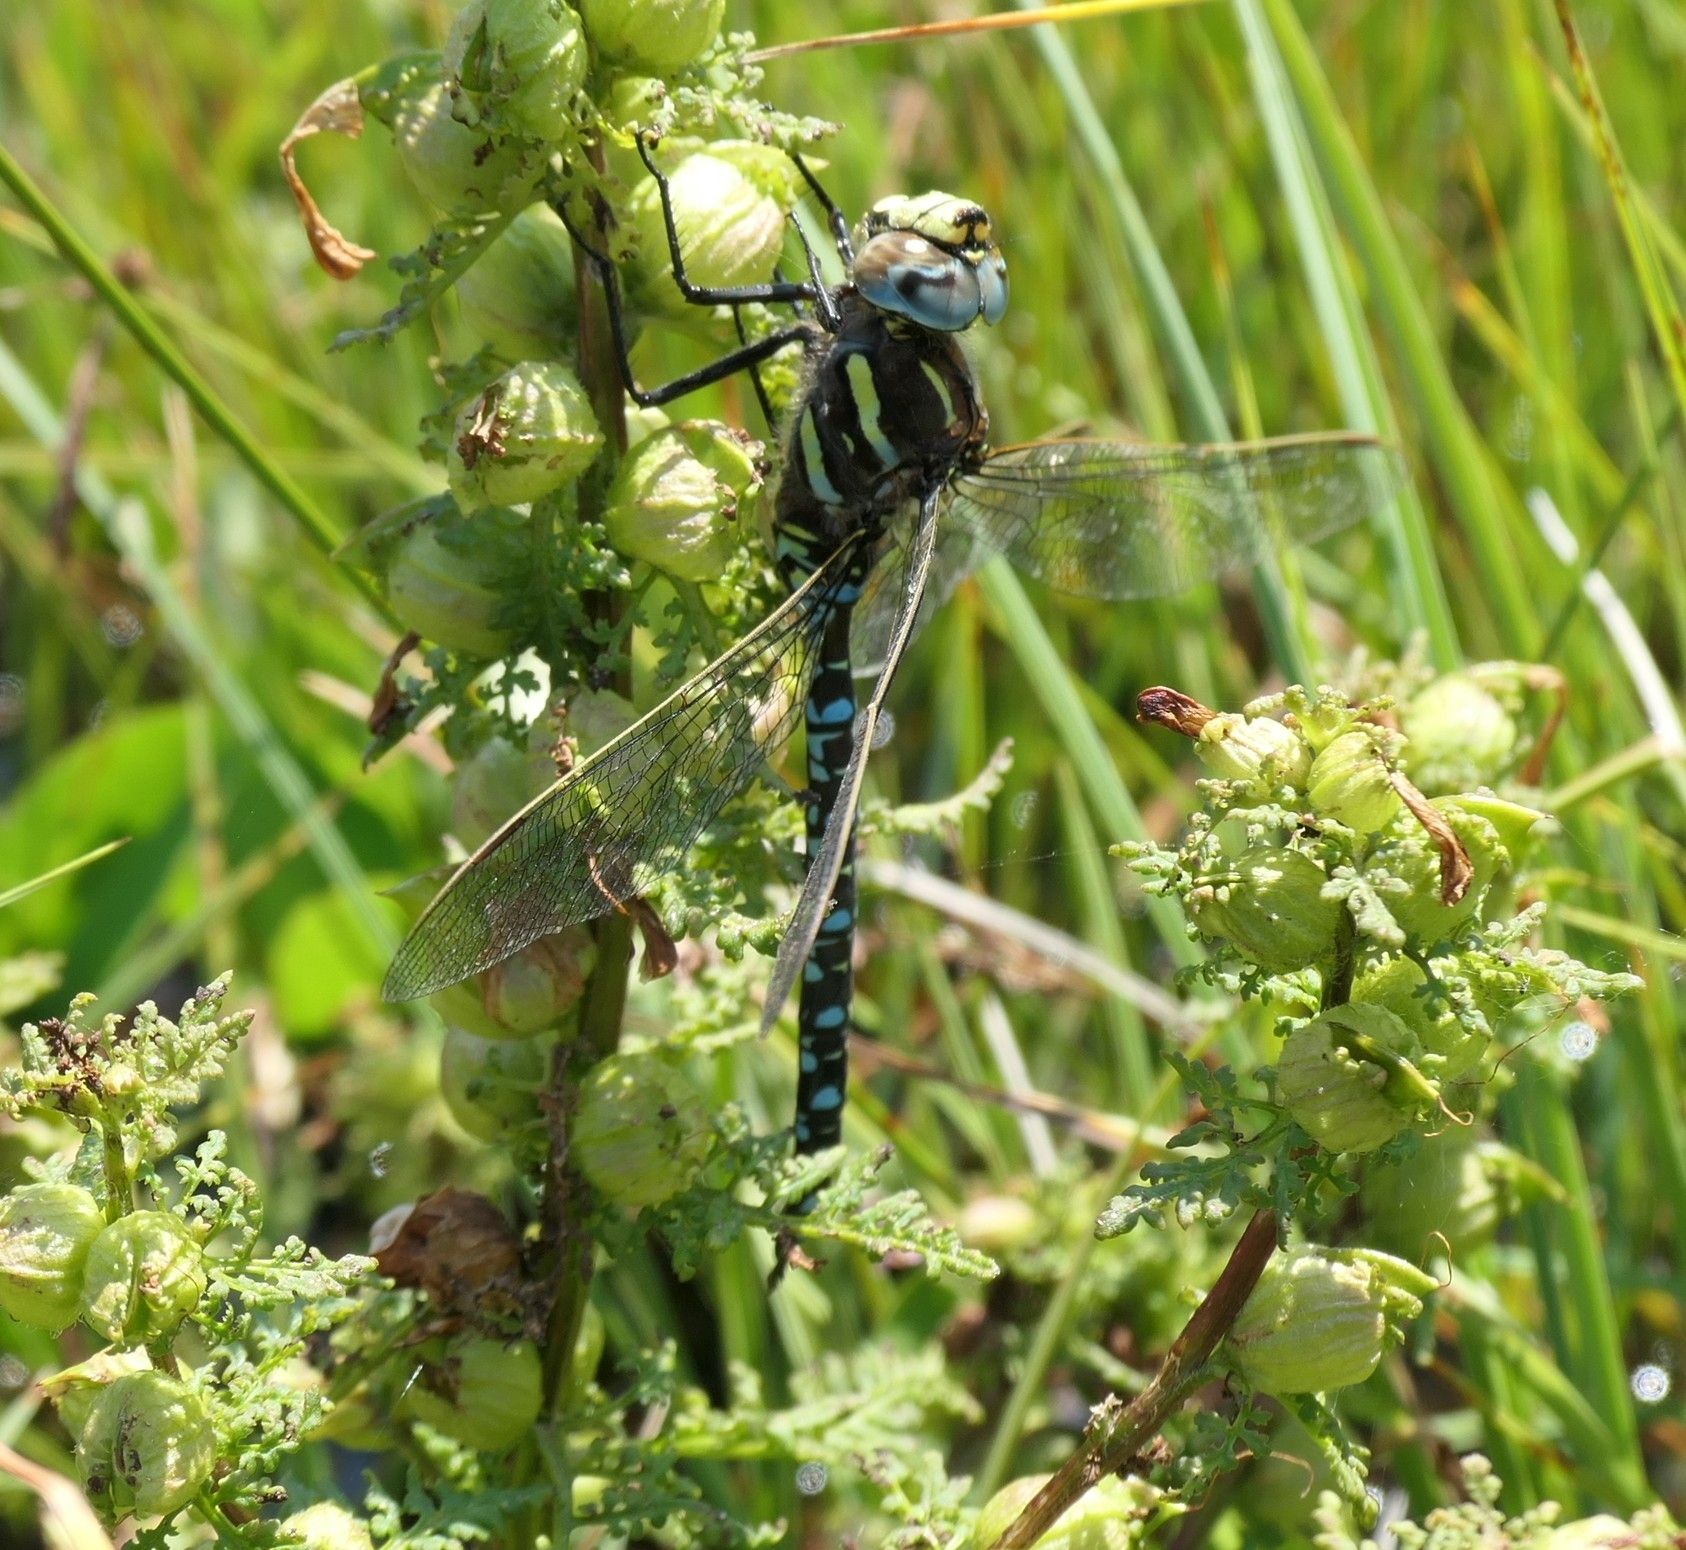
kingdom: Animalia
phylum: Arthropoda
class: Insecta
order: Odonata
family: Aeshnidae
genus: Aeshna
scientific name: Aeshna juncea
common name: Moorland hawker
